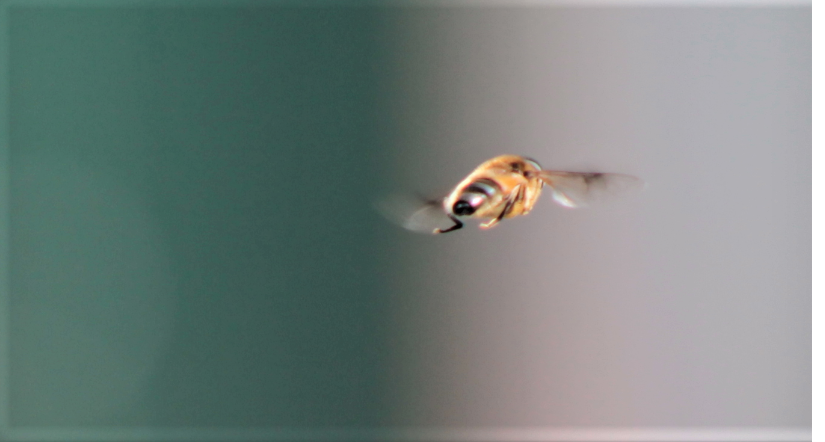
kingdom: Animalia
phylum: Arthropoda
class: Insecta
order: Diptera
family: Syrphidae
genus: Eristalis
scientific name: Eristalis
